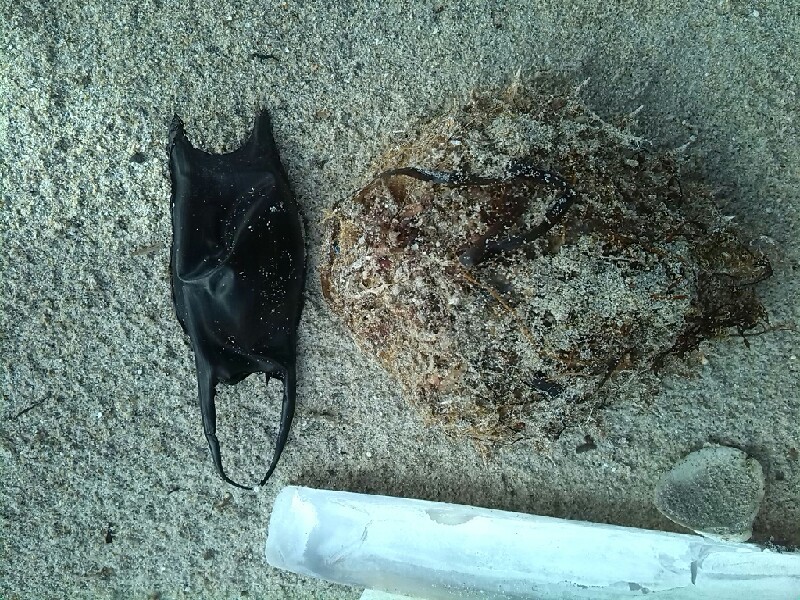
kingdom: Animalia
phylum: Chordata
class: Elasmobranchii
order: Rajiformes
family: Rajidae
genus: Raja
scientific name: Raja montagui
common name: Spotted ray
